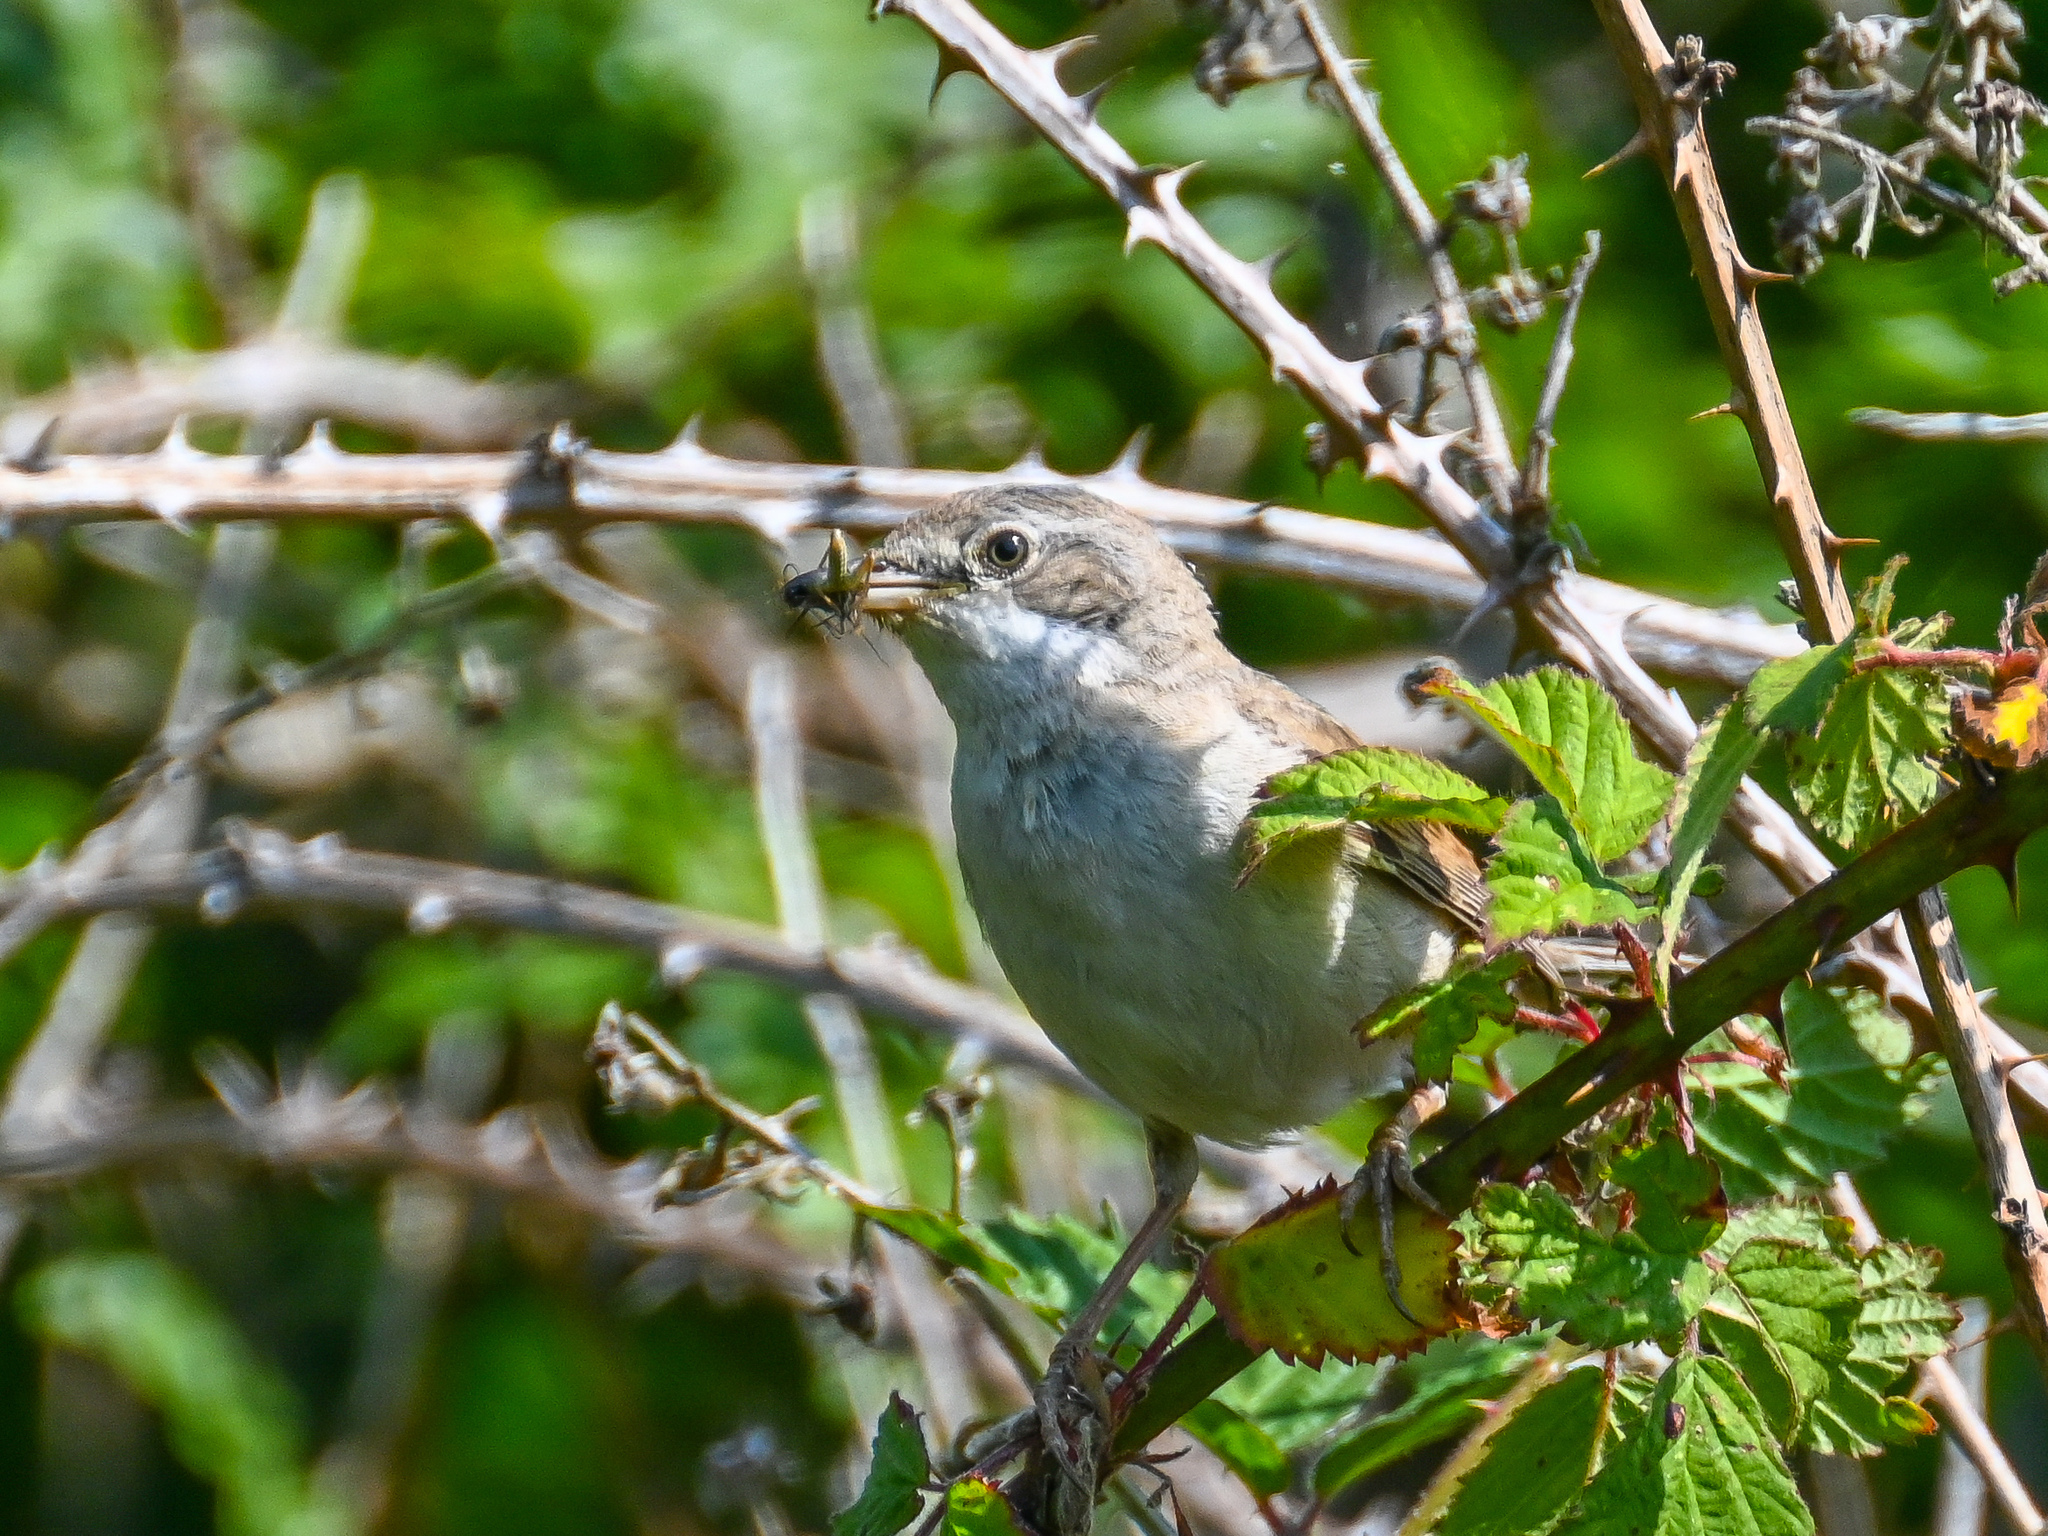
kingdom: Animalia
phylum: Chordata
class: Aves
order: Passeriformes
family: Sylviidae
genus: Sylvia
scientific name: Sylvia communis
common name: Common whitethroat
